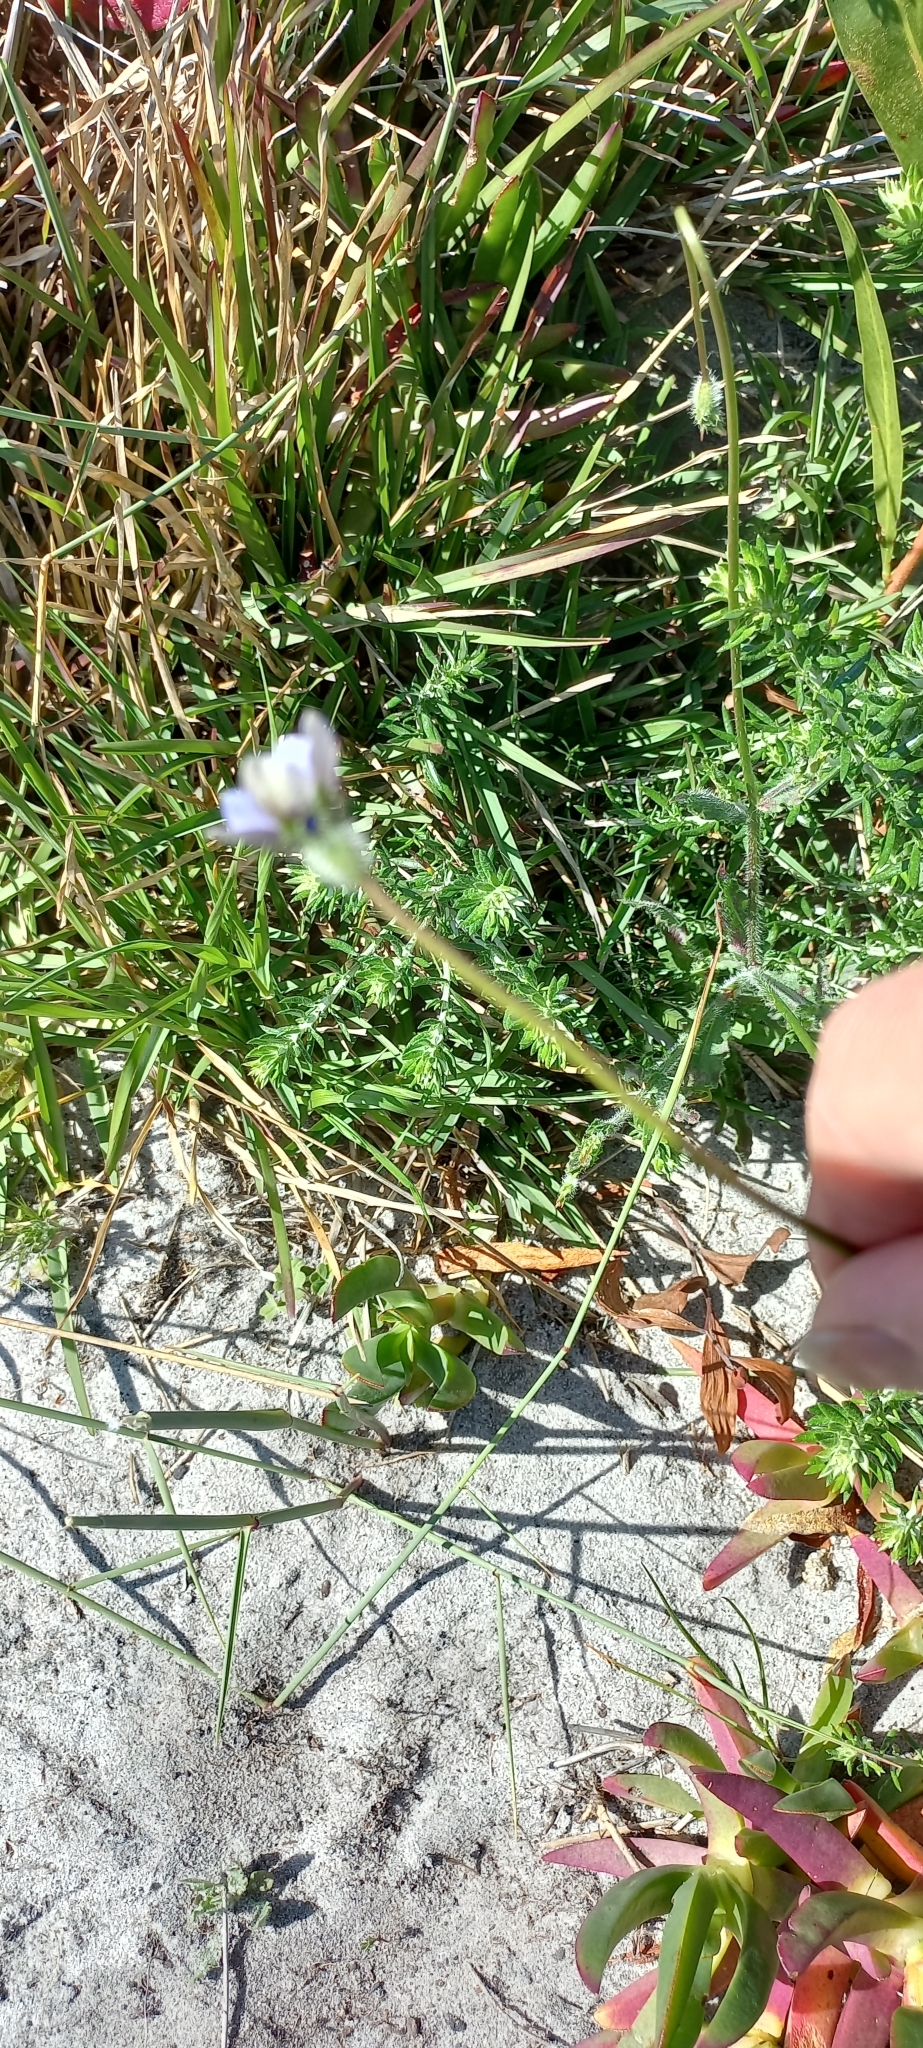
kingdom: Plantae
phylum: Tracheophyta
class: Magnoliopsida
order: Asterales
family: Campanulaceae
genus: Wahlenbergia
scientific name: Wahlenbergia capensis
